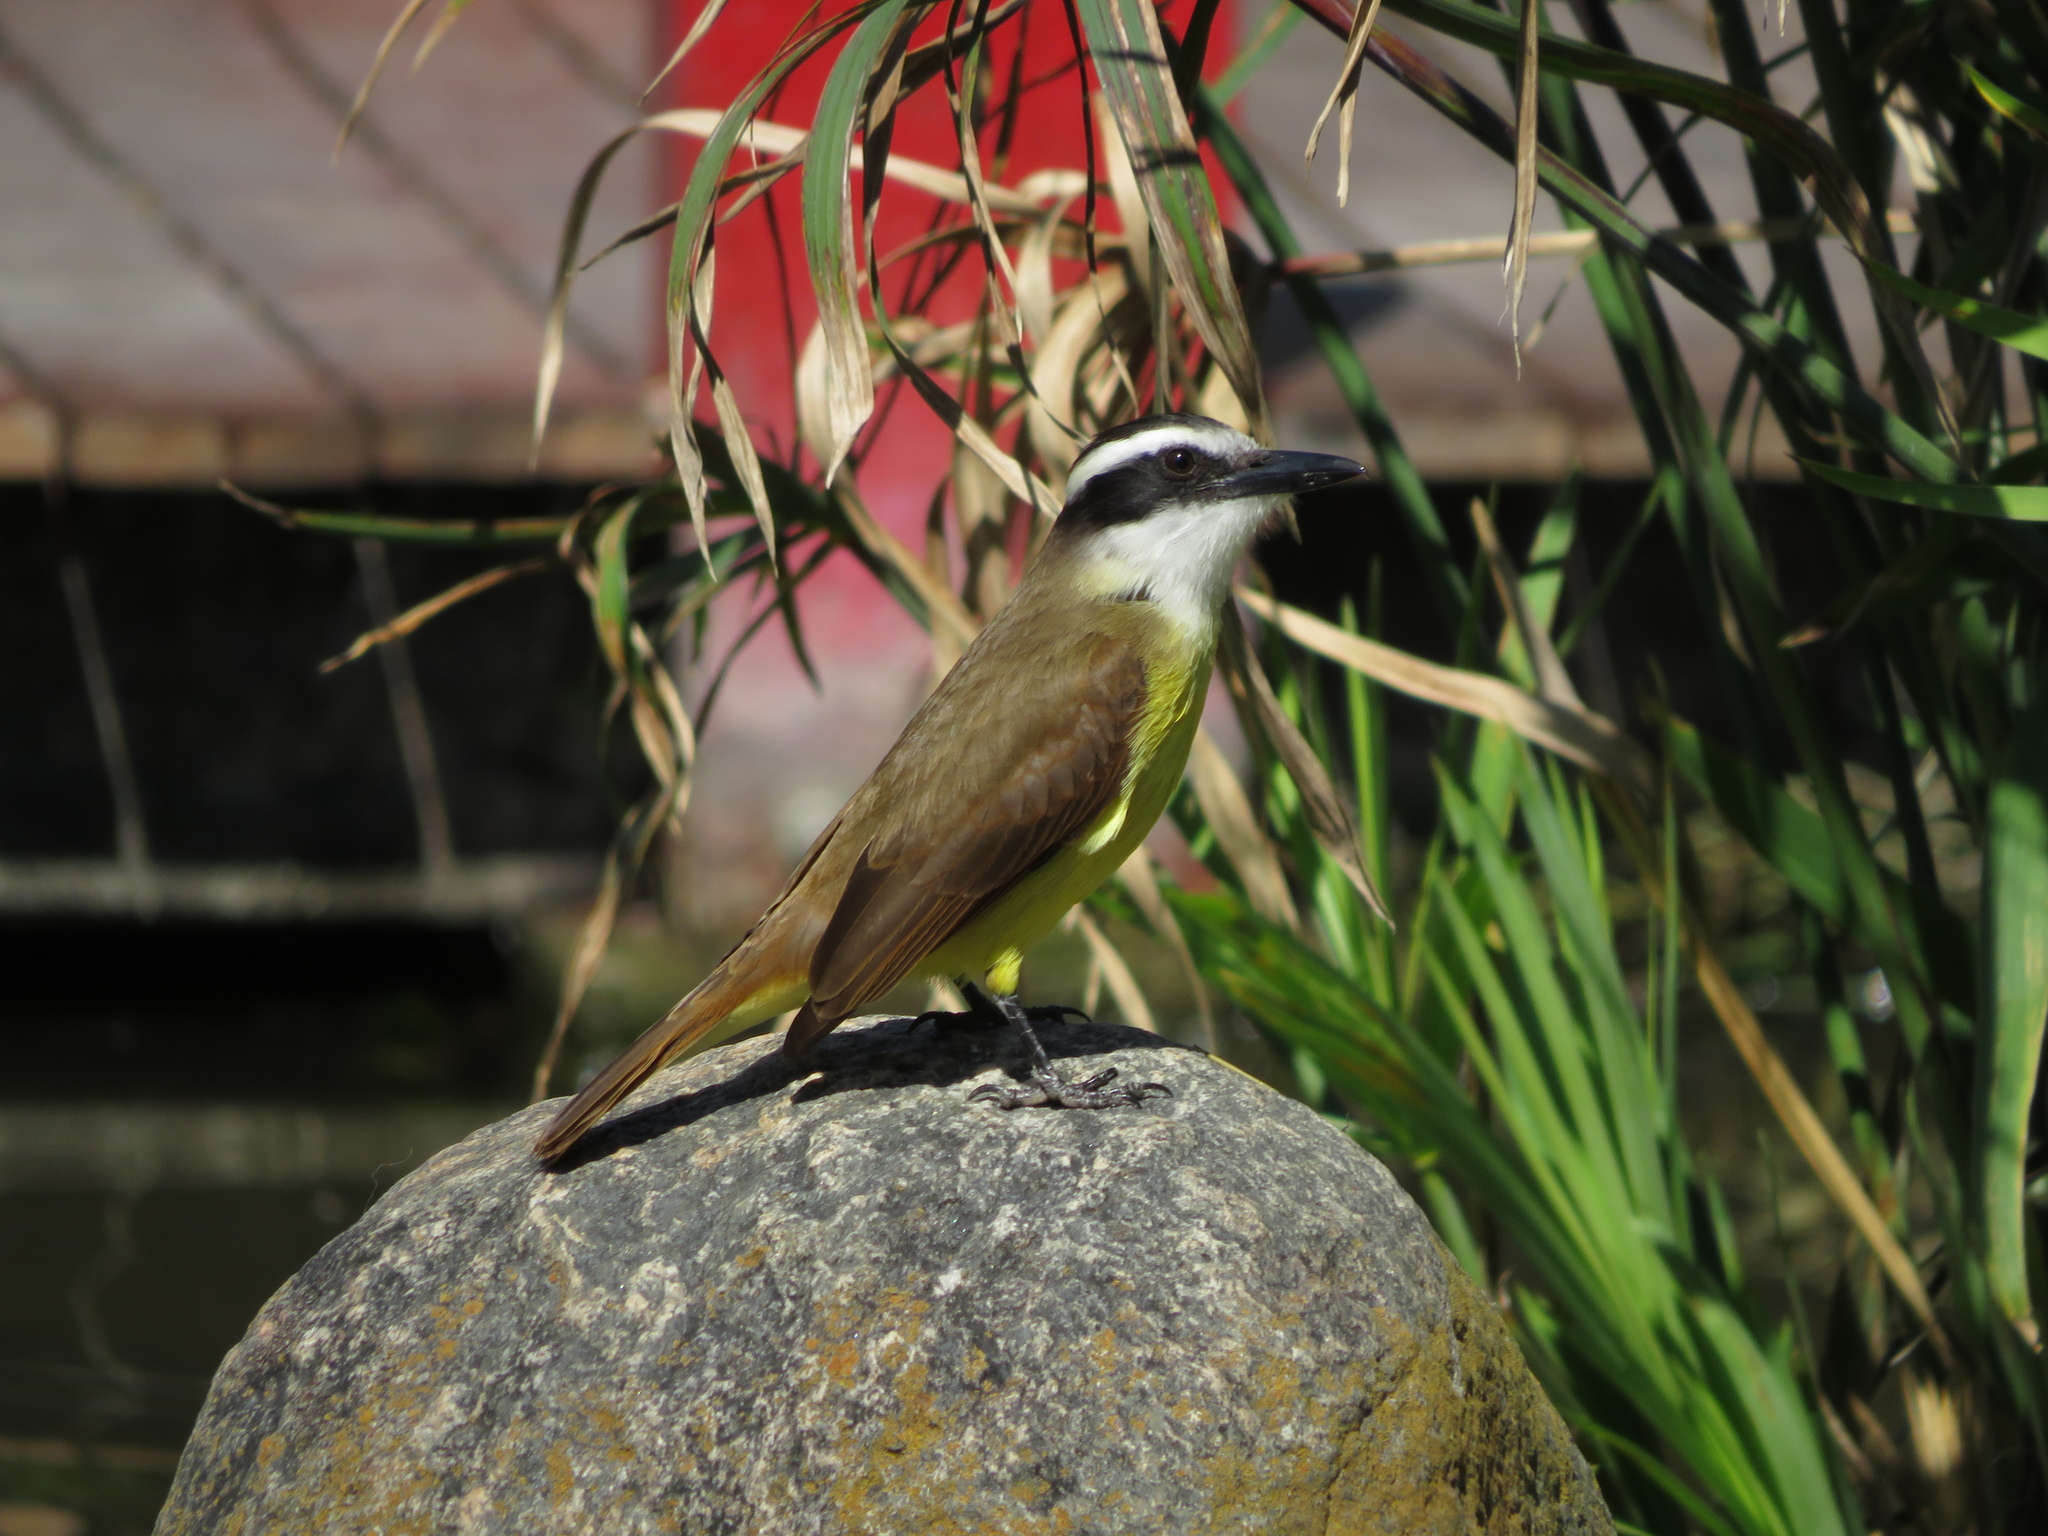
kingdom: Animalia
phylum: Chordata
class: Aves
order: Passeriformes
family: Tyrannidae
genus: Pitangus
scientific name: Pitangus sulphuratus
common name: Great kiskadee
